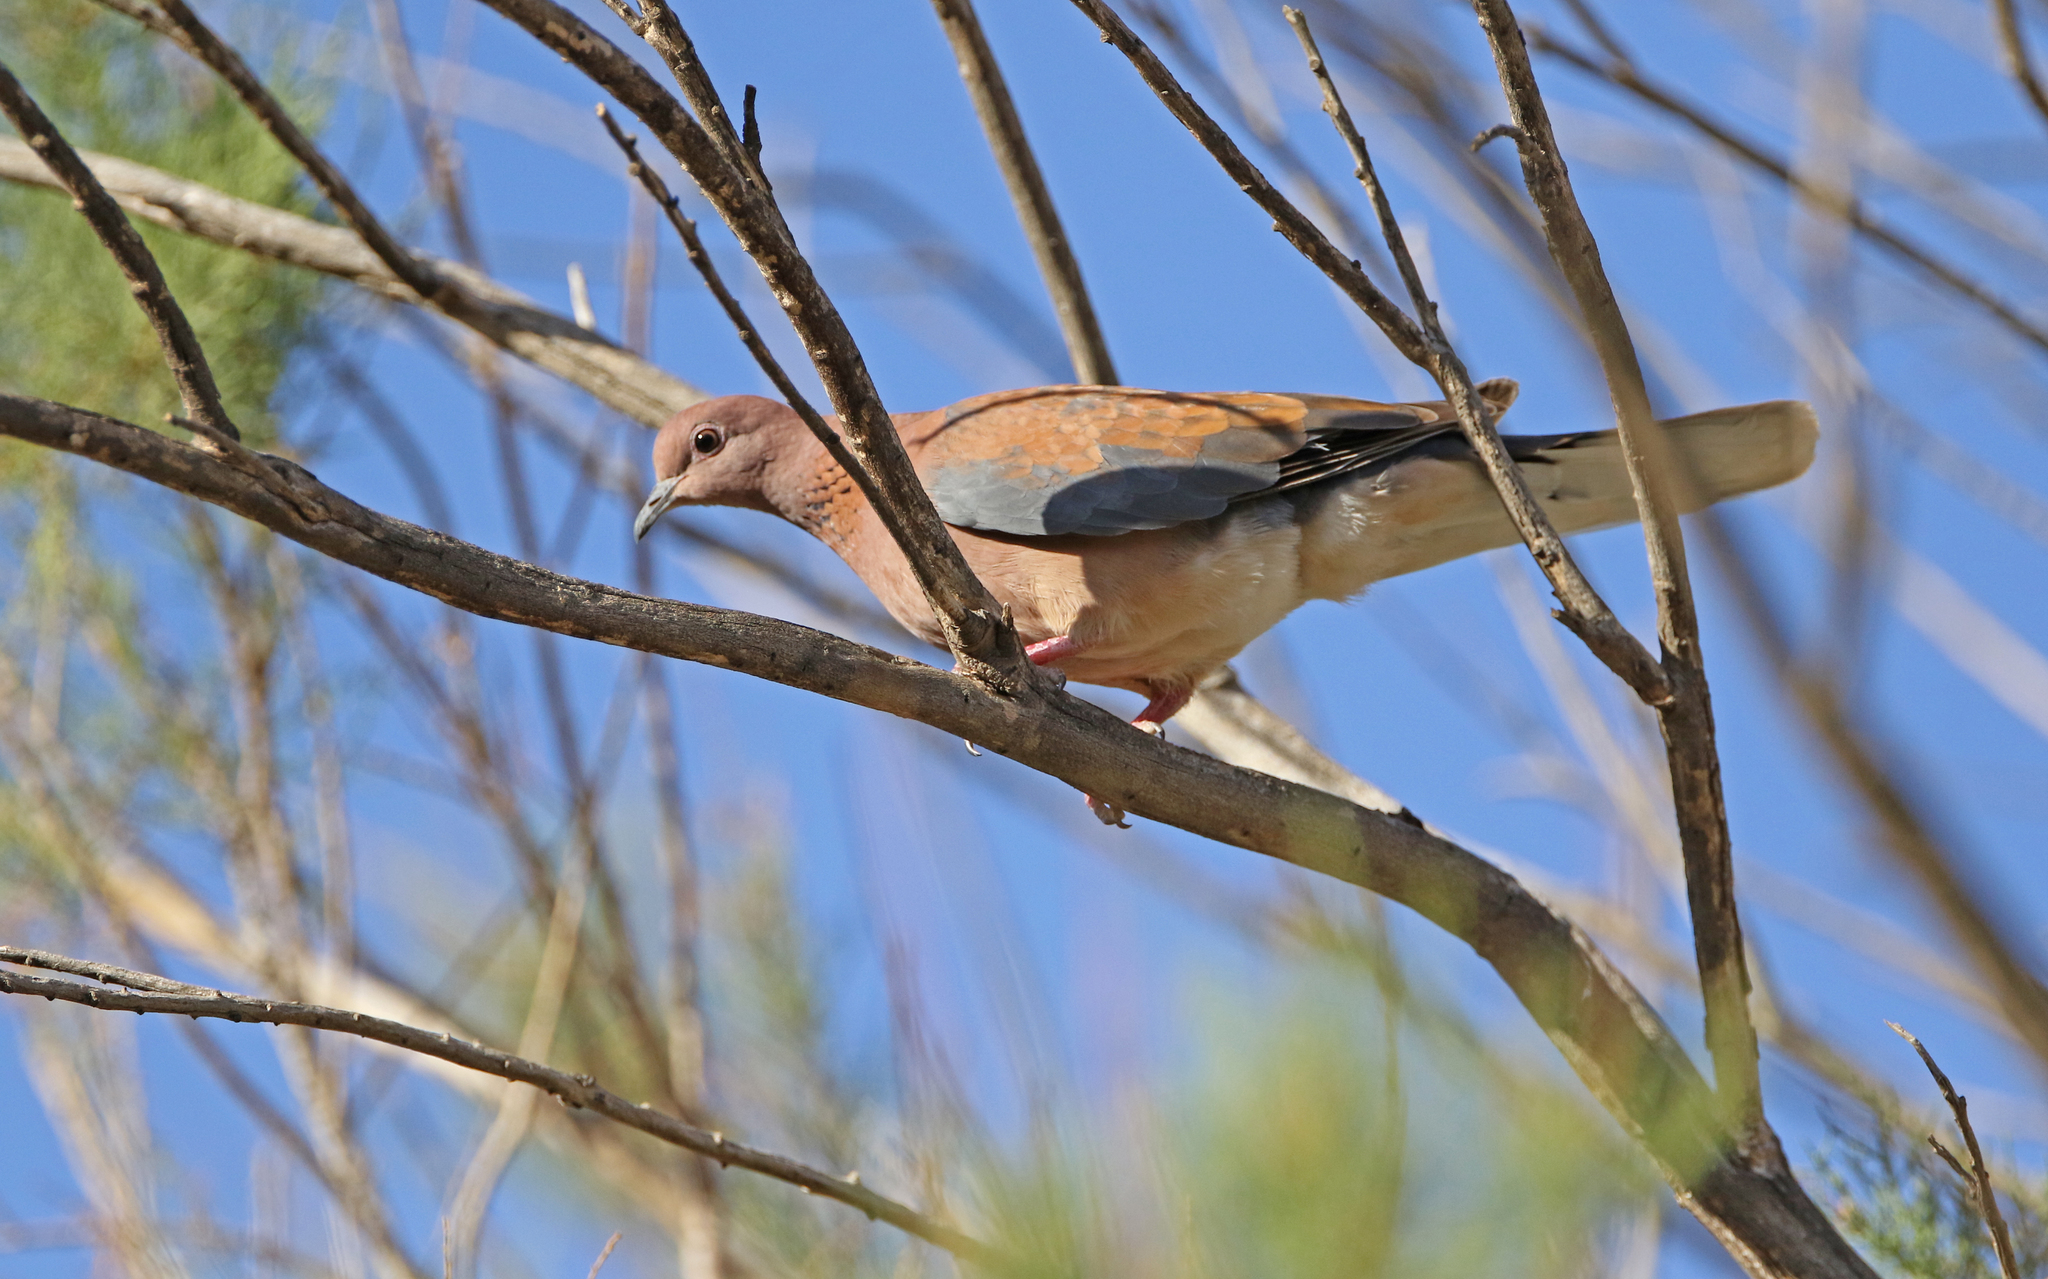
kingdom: Animalia
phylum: Chordata
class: Aves
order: Columbiformes
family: Columbidae
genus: Spilopelia
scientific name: Spilopelia senegalensis
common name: Laughing dove
